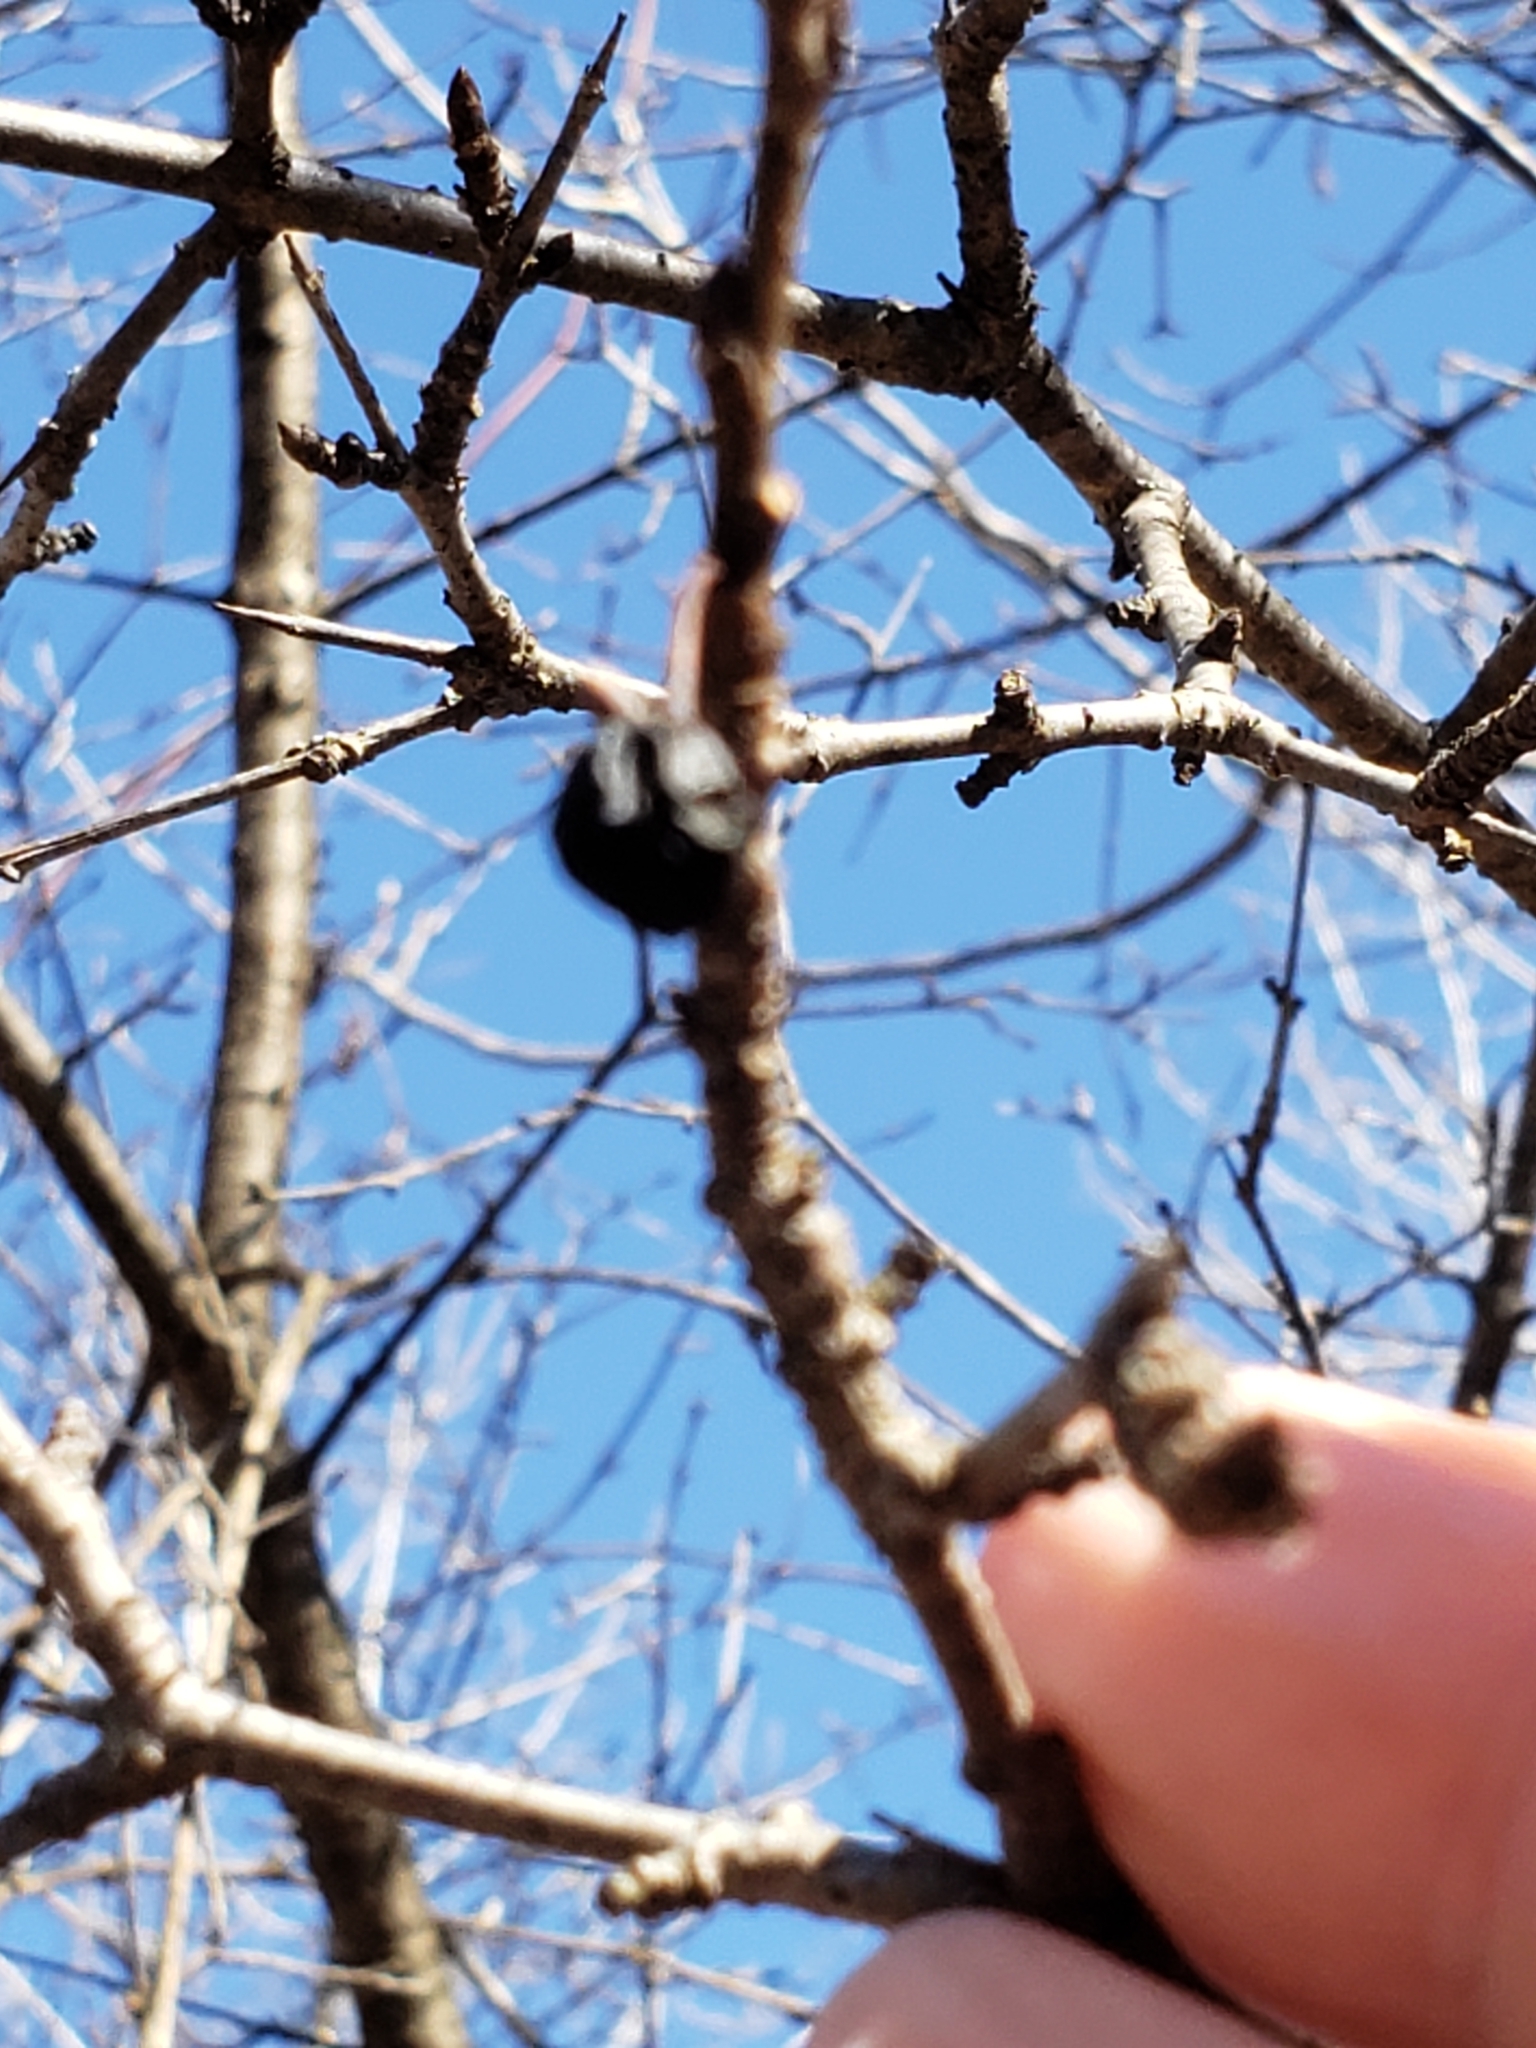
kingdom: Plantae
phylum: Tracheophyta
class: Magnoliopsida
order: Rosales
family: Rhamnaceae
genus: Rhamnus
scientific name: Rhamnus cathartica
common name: Common buckthorn
